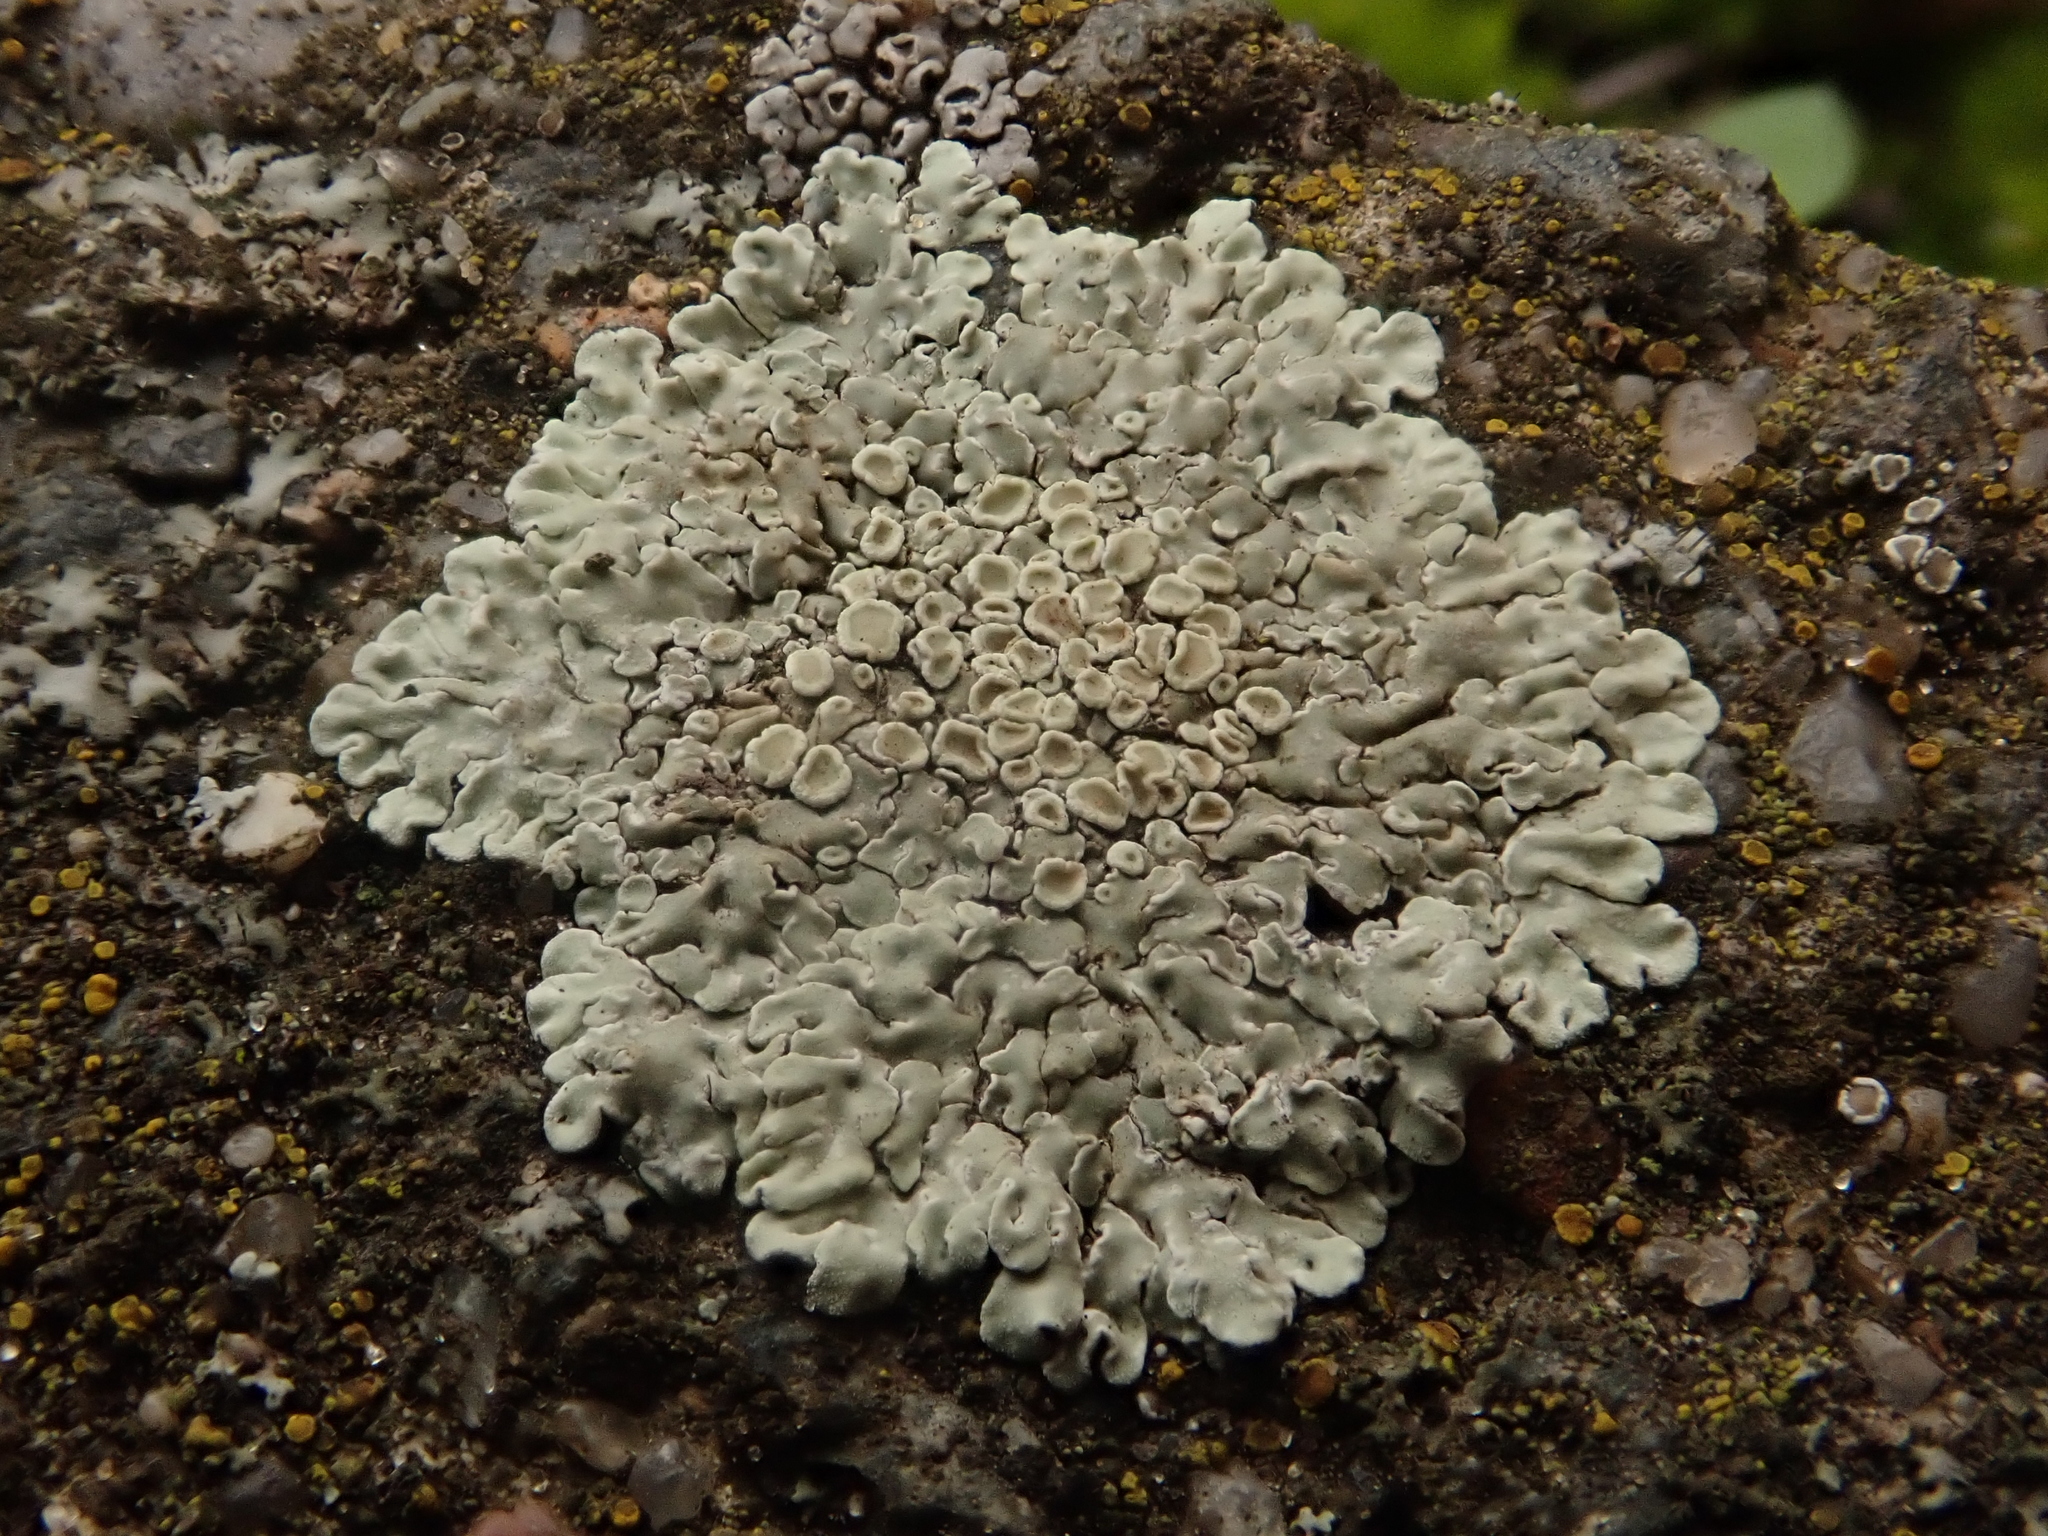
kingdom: Fungi
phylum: Ascomycota
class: Lecanoromycetes
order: Lecanorales
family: Lecanoraceae
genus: Protoparmeliopsis
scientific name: Protoparmeliopsis muralis
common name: Stonewall rim lichen
